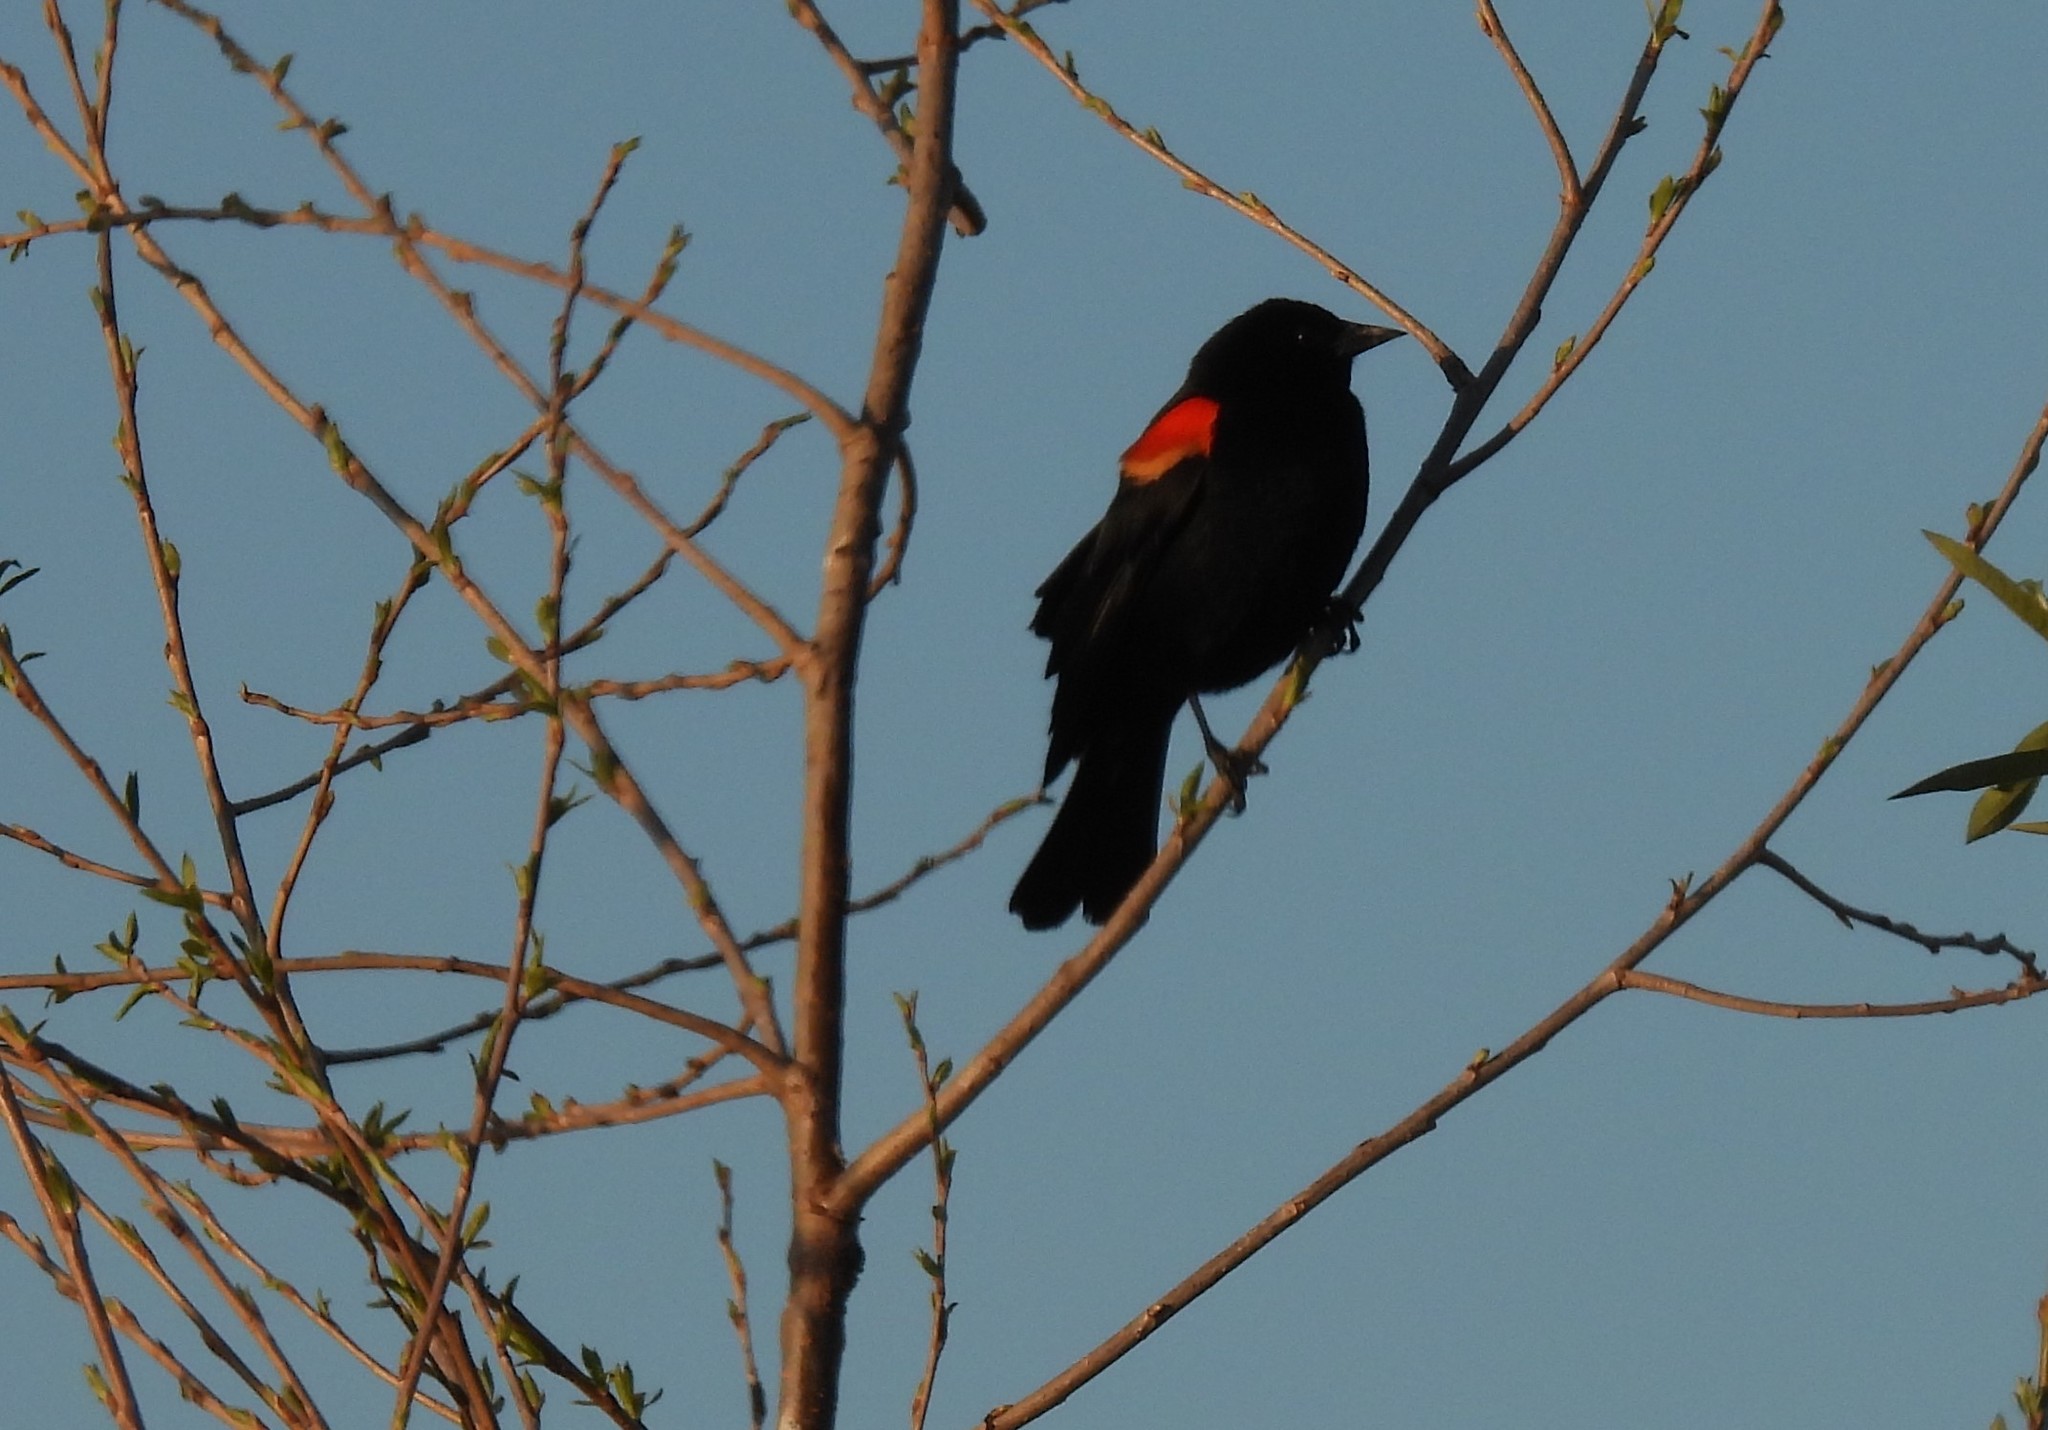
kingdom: Animalia
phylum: Chordata
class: Aves
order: Passeriformes
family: Icteridae
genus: Agelaius
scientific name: Agelaius phoeniceus
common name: Red-winged blackbird
